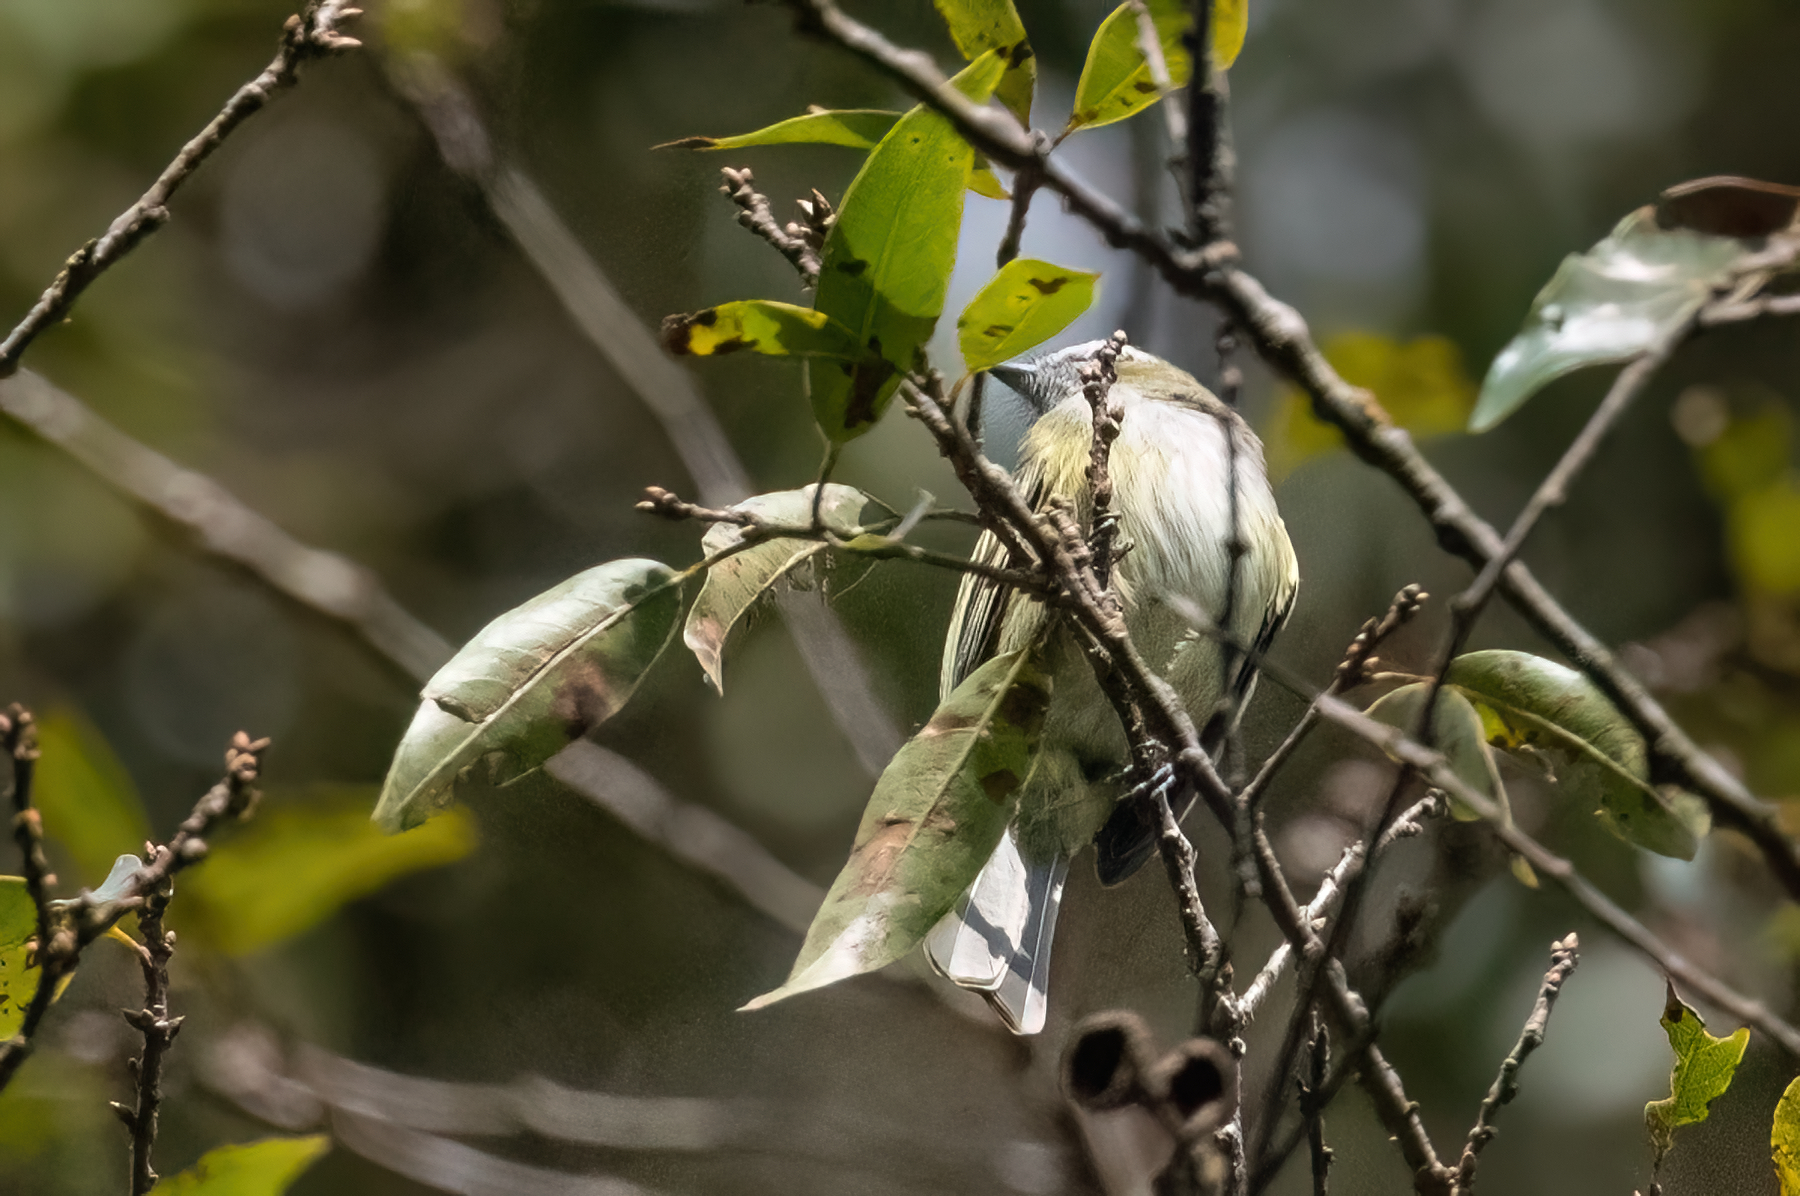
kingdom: Animalia
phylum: Chordata
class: Aves
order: Passeriformes
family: Tyrannidae
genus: Zimmerius
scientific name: Zimmerius vilissimus
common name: Paltry tyrannulet
